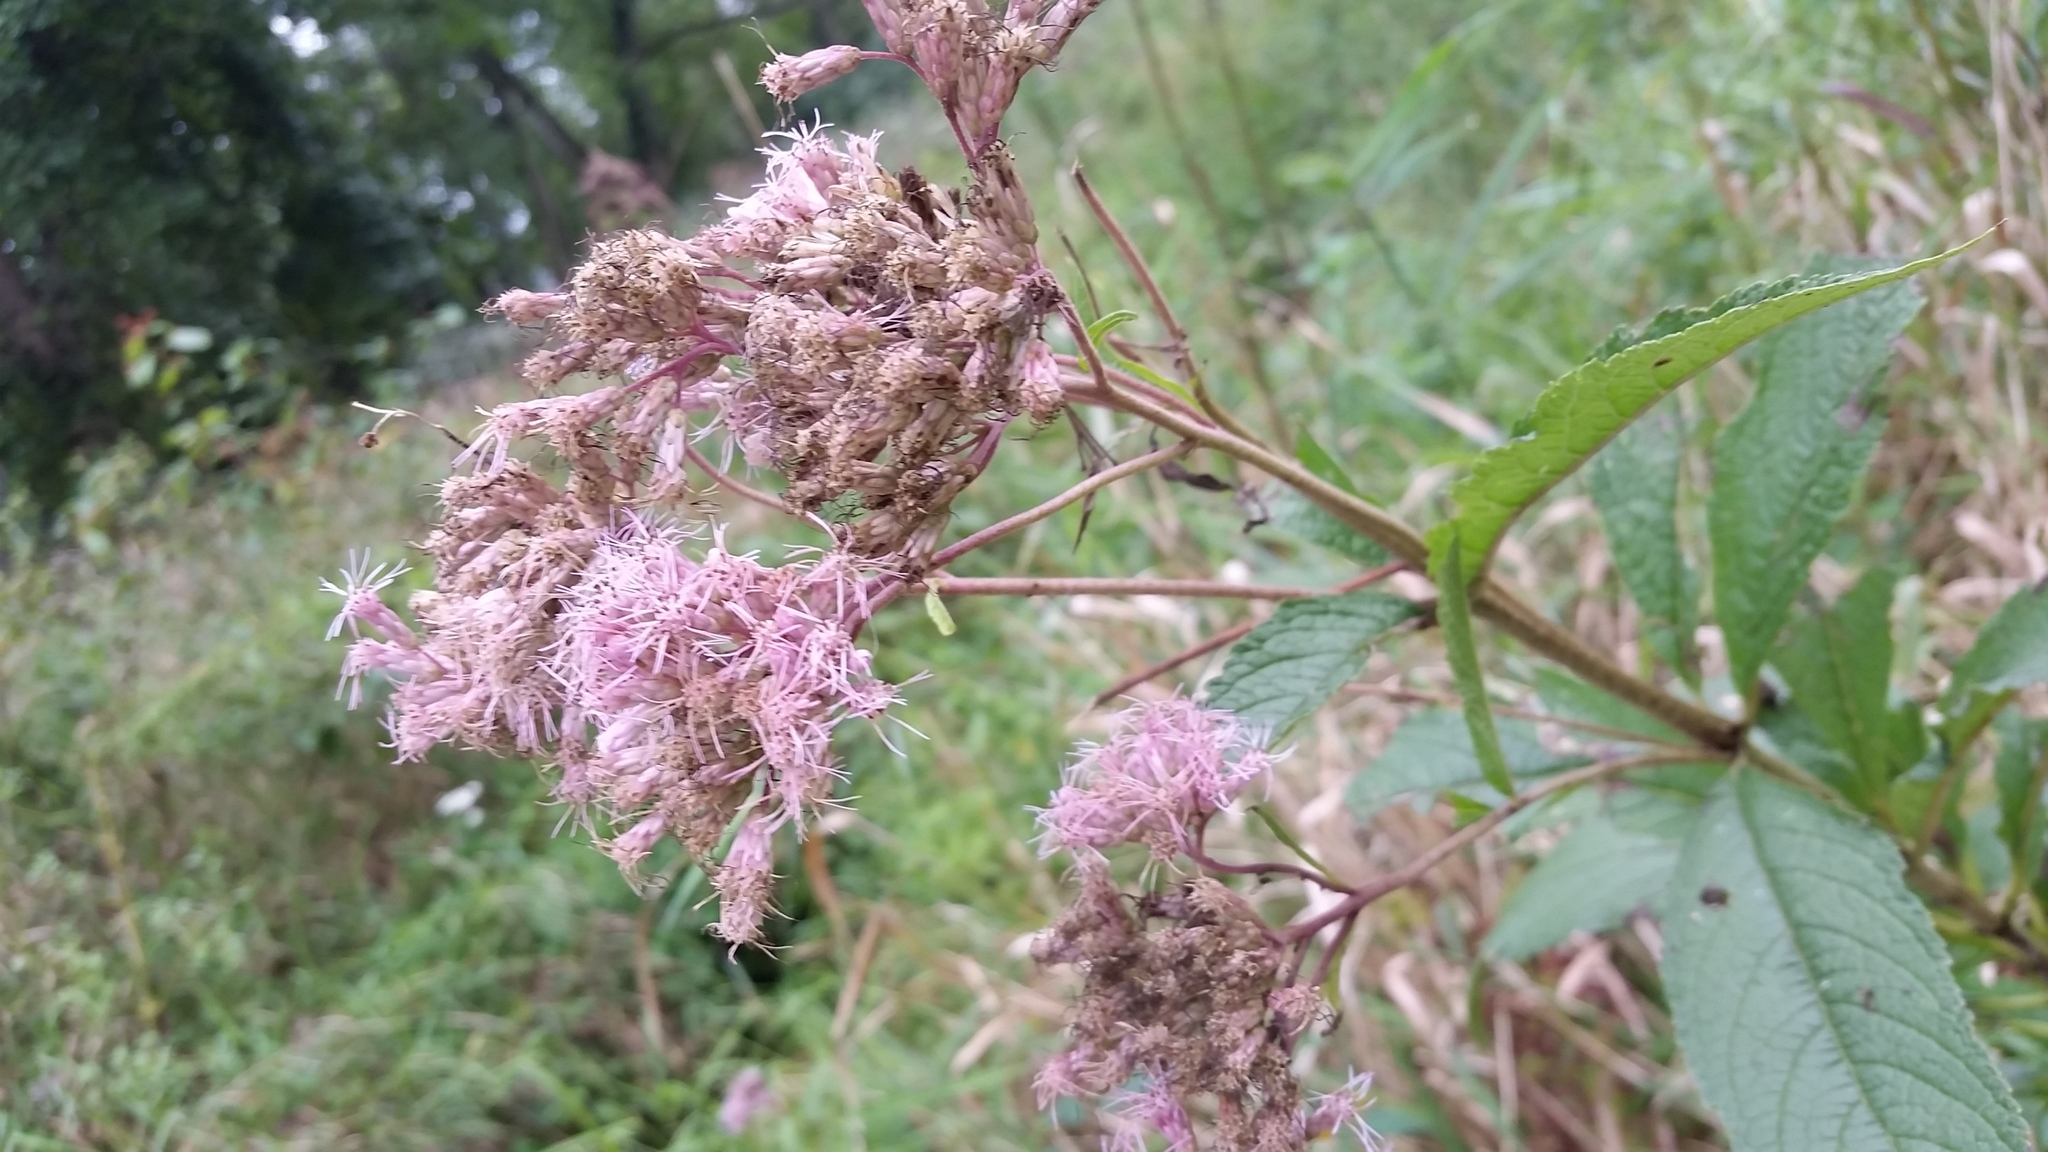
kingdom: Plantae
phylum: Tracheophyta
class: Magnoliopsida
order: Asterales
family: Asteraceae
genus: Eutrochium
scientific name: Eutrochium maculatum
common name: Spotted joe pye weed
